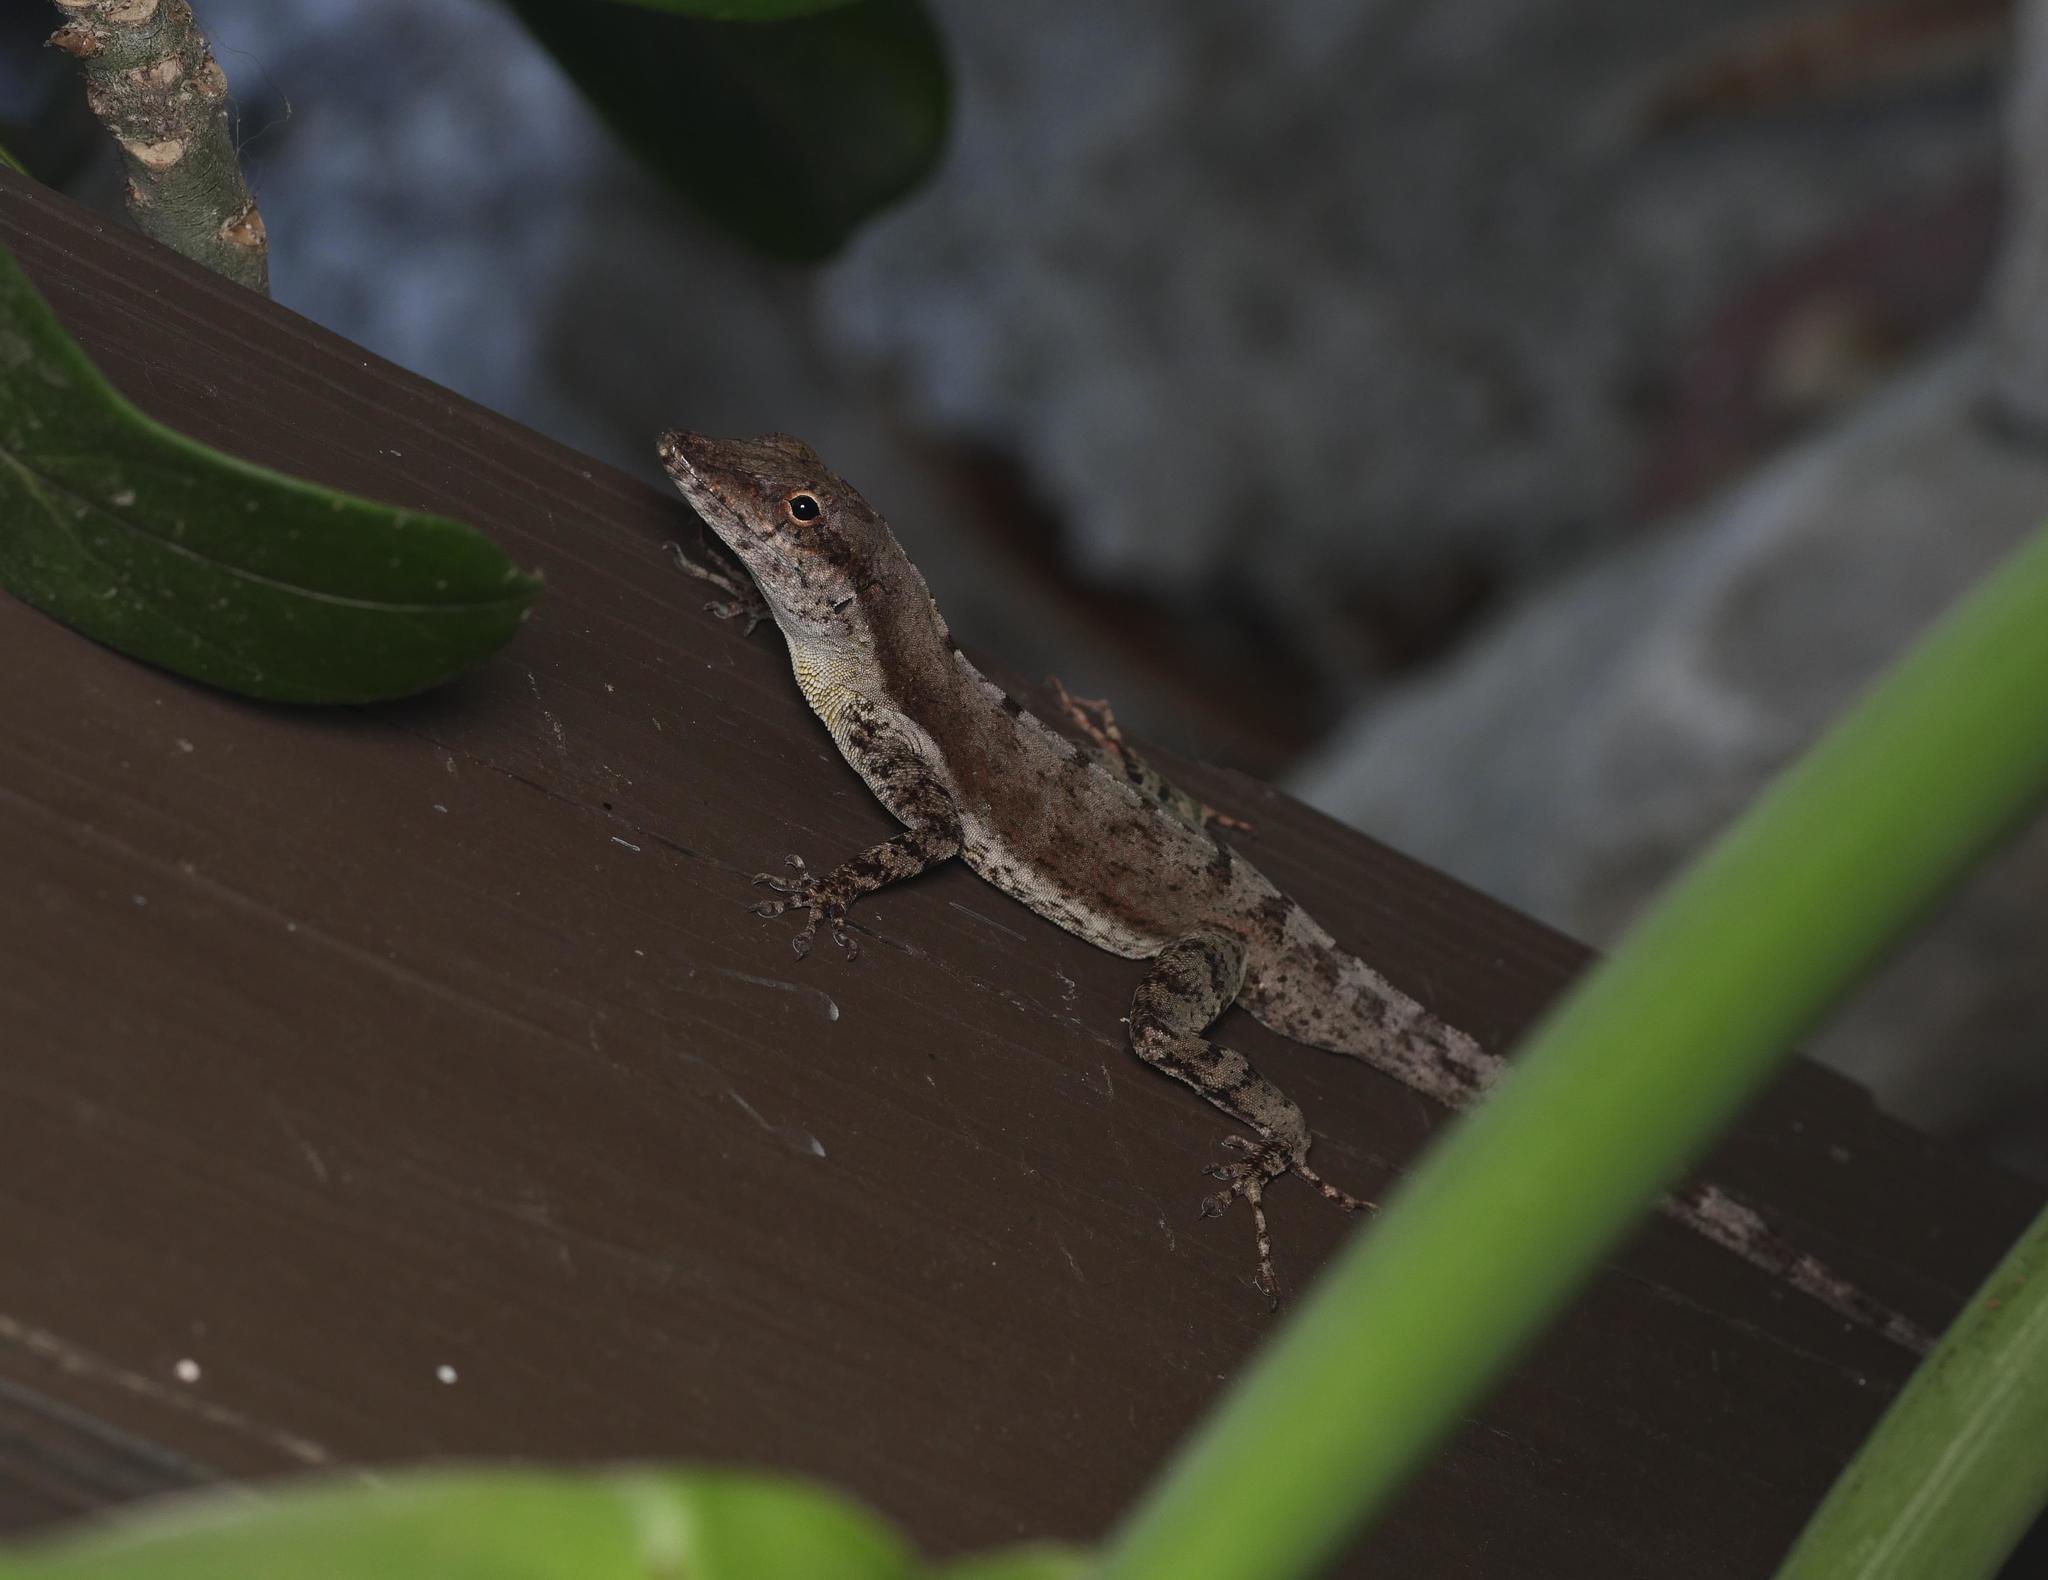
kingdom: Animalia
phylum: Chordata
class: Squamata
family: Dactyloidae
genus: Anolis
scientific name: Anolis scriptus
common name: Silver key anole
